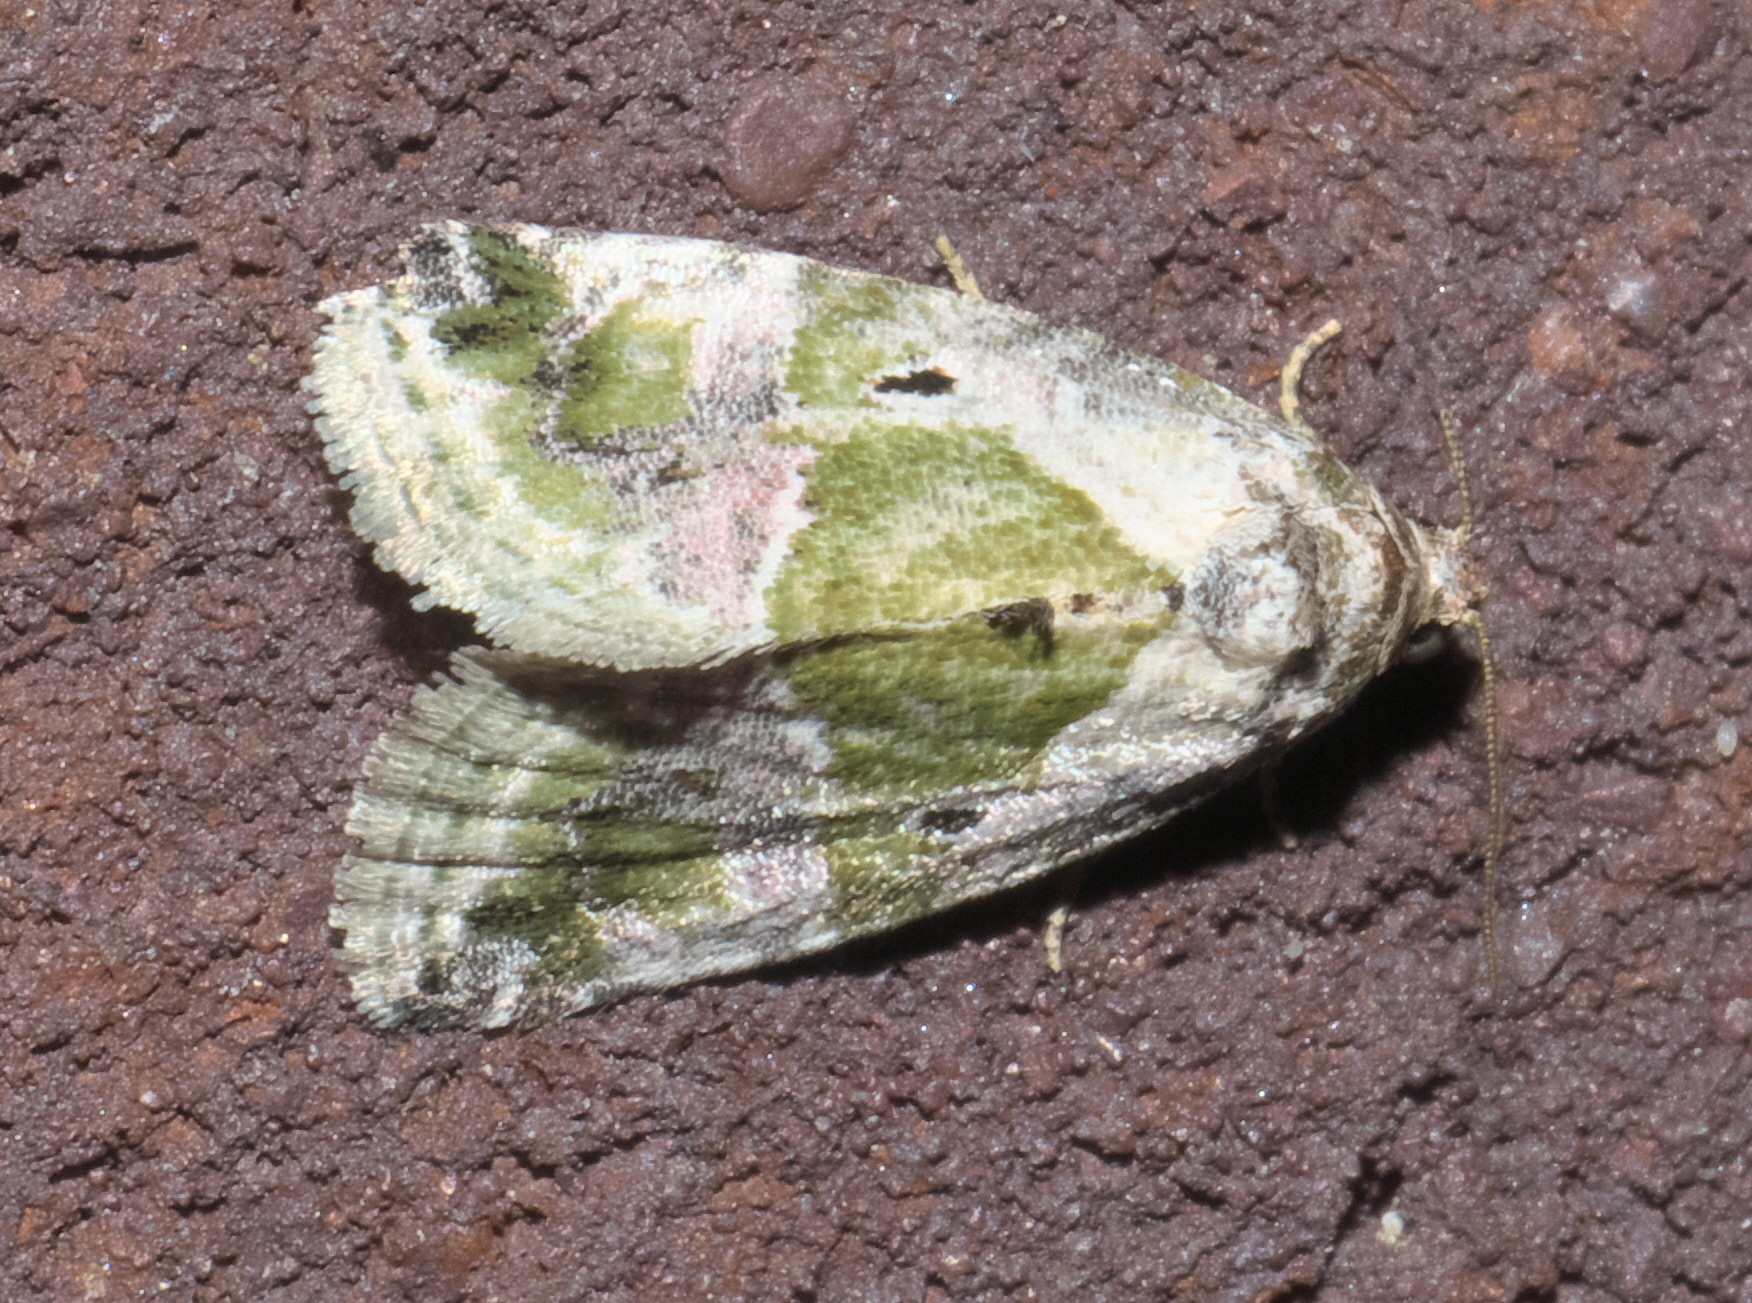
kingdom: Animalia
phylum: Arthropoda
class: Insecta
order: Lepidoptera
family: Noctuidae
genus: Maliattha
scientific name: Maliattha synochitis
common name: Black-dotted glyph
